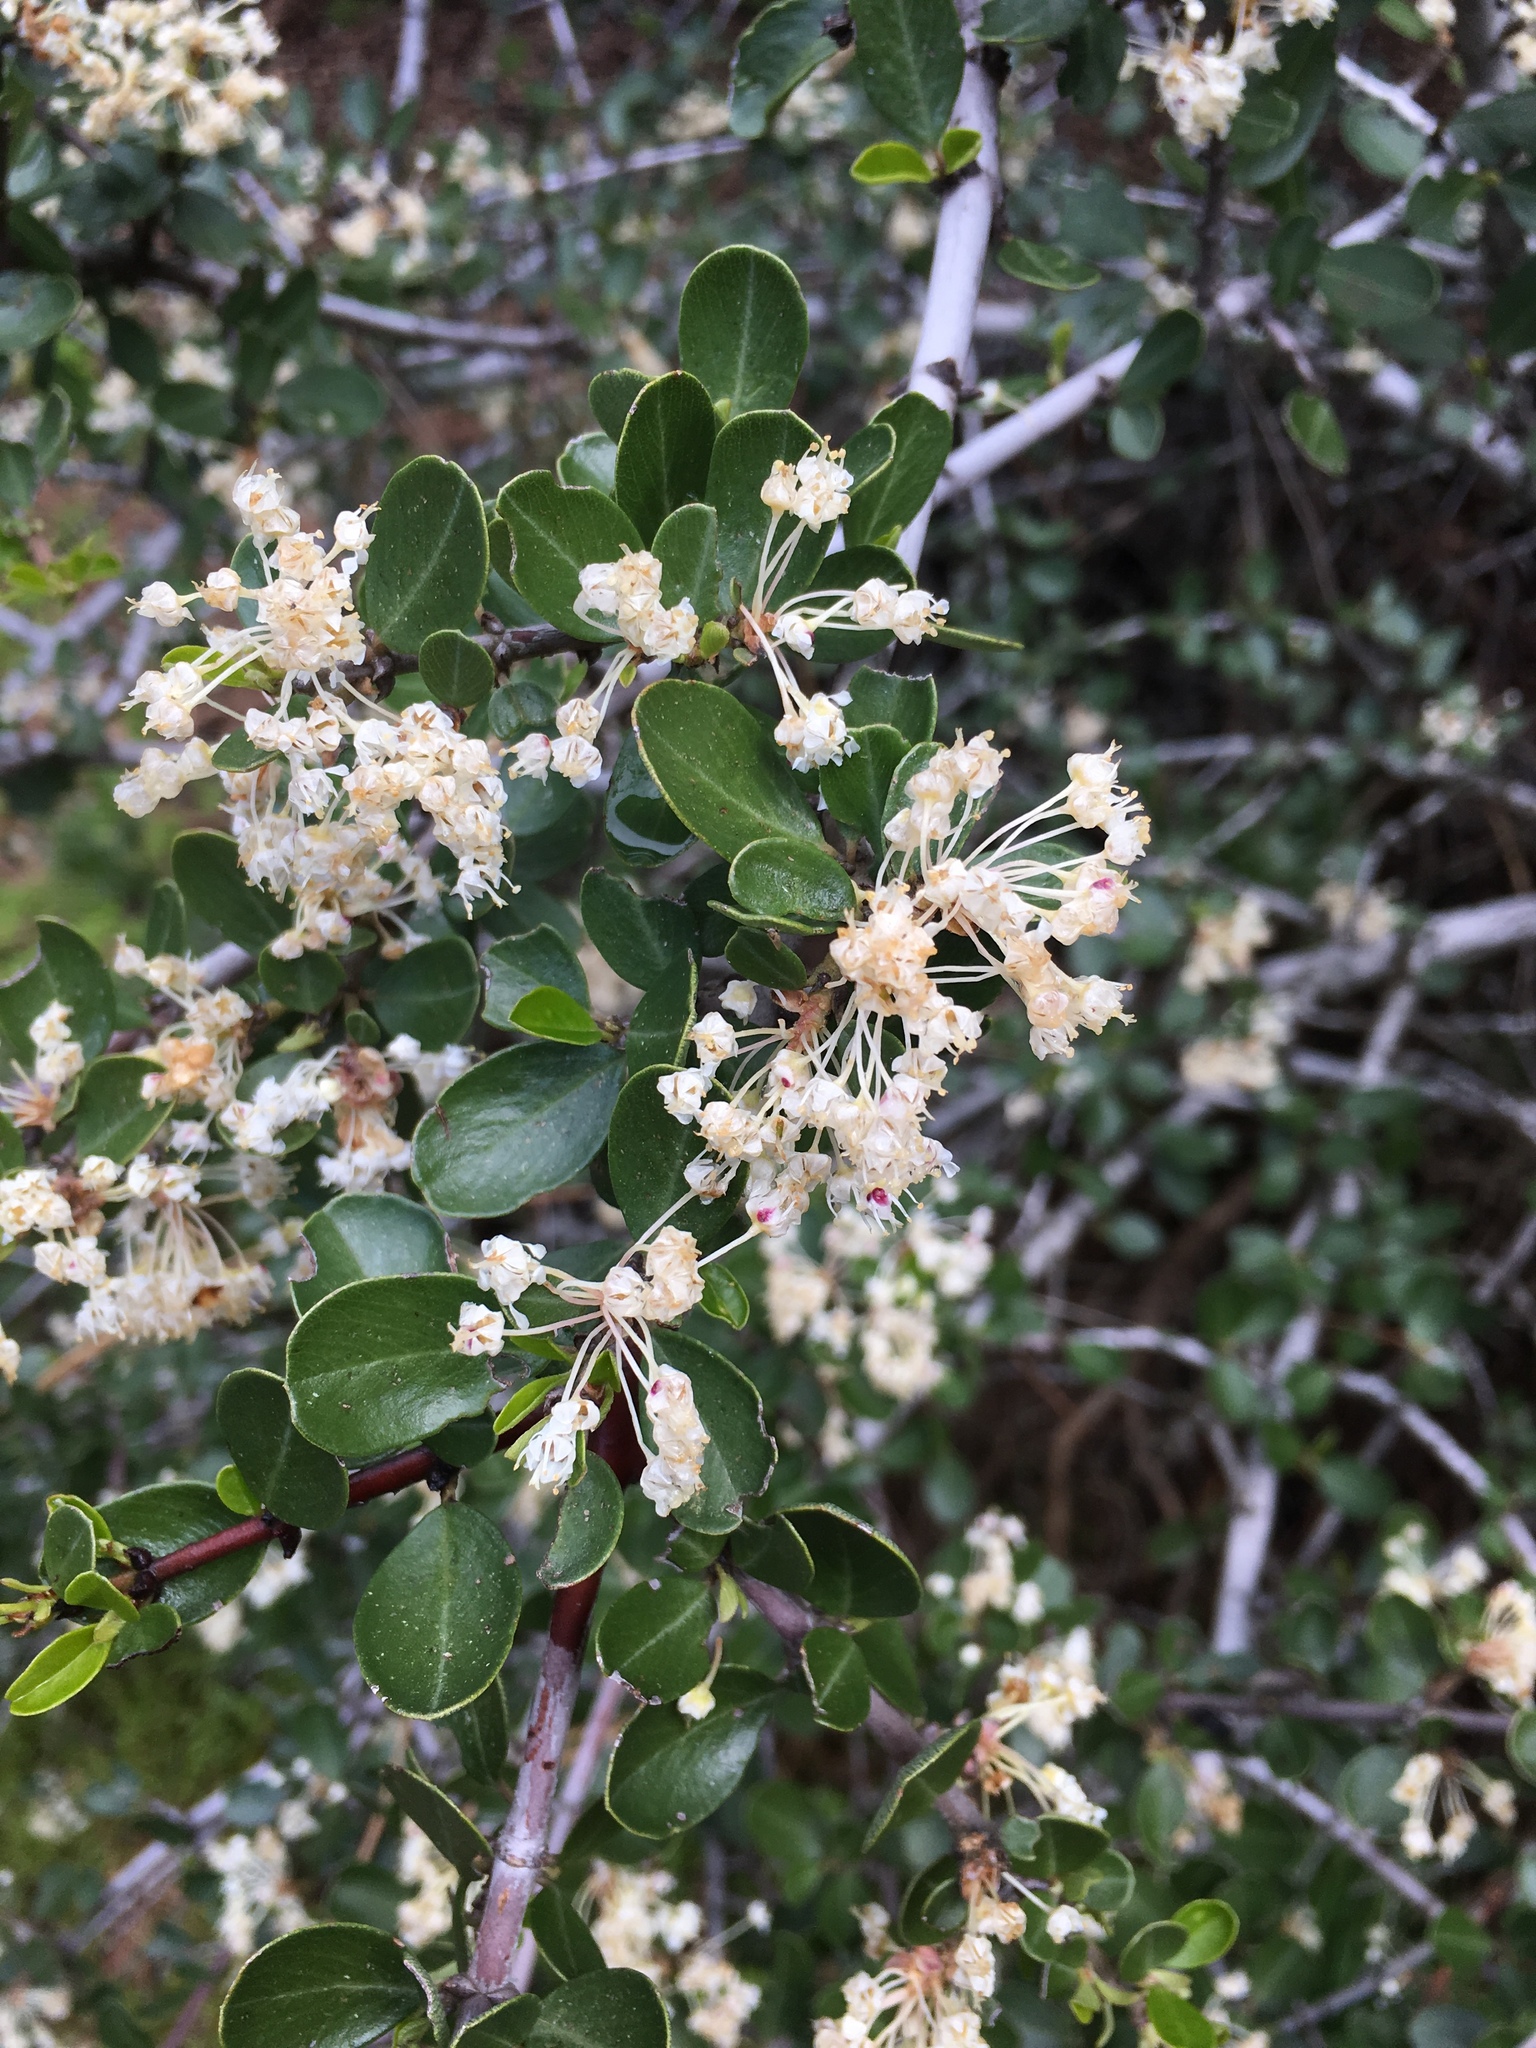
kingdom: Plantae
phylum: Tracheophyta
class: Magnoliopsida
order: Rosales
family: Rhamnaceae
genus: Ceanothus
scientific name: Ceanothus cuneatus
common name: Cuneate ceanothus
